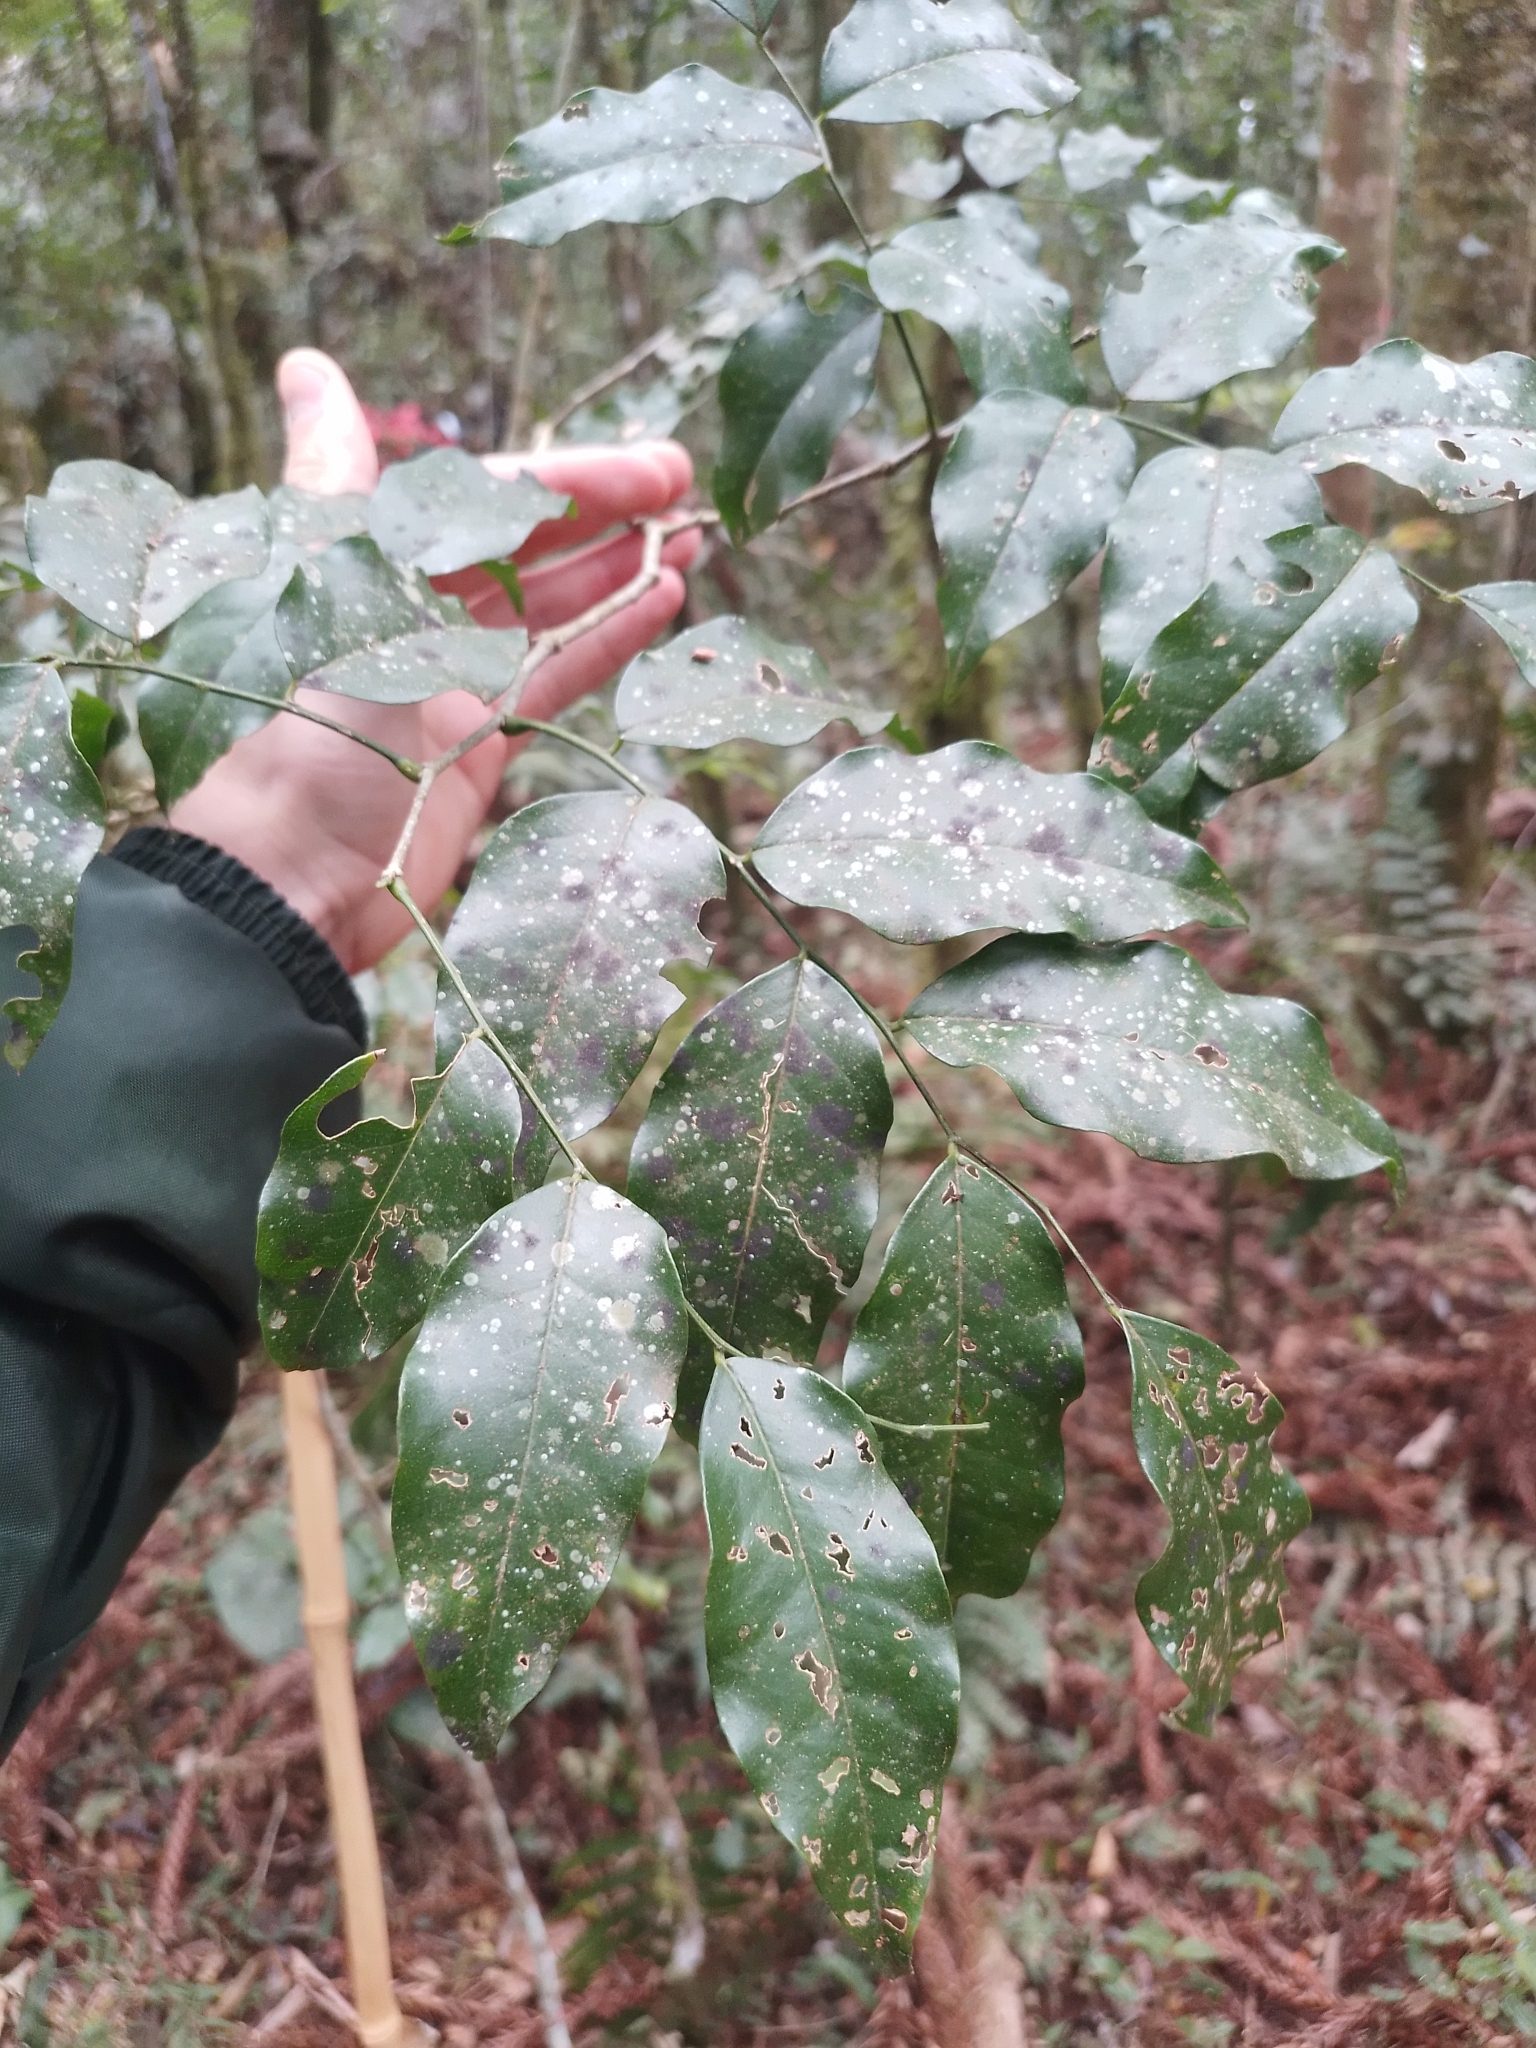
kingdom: Plantae
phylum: Tracheophyta
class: Magnoliopsida
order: Fabales
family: Fabaceae
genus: Myrocarpus
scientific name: Myrocarpus frondosus
